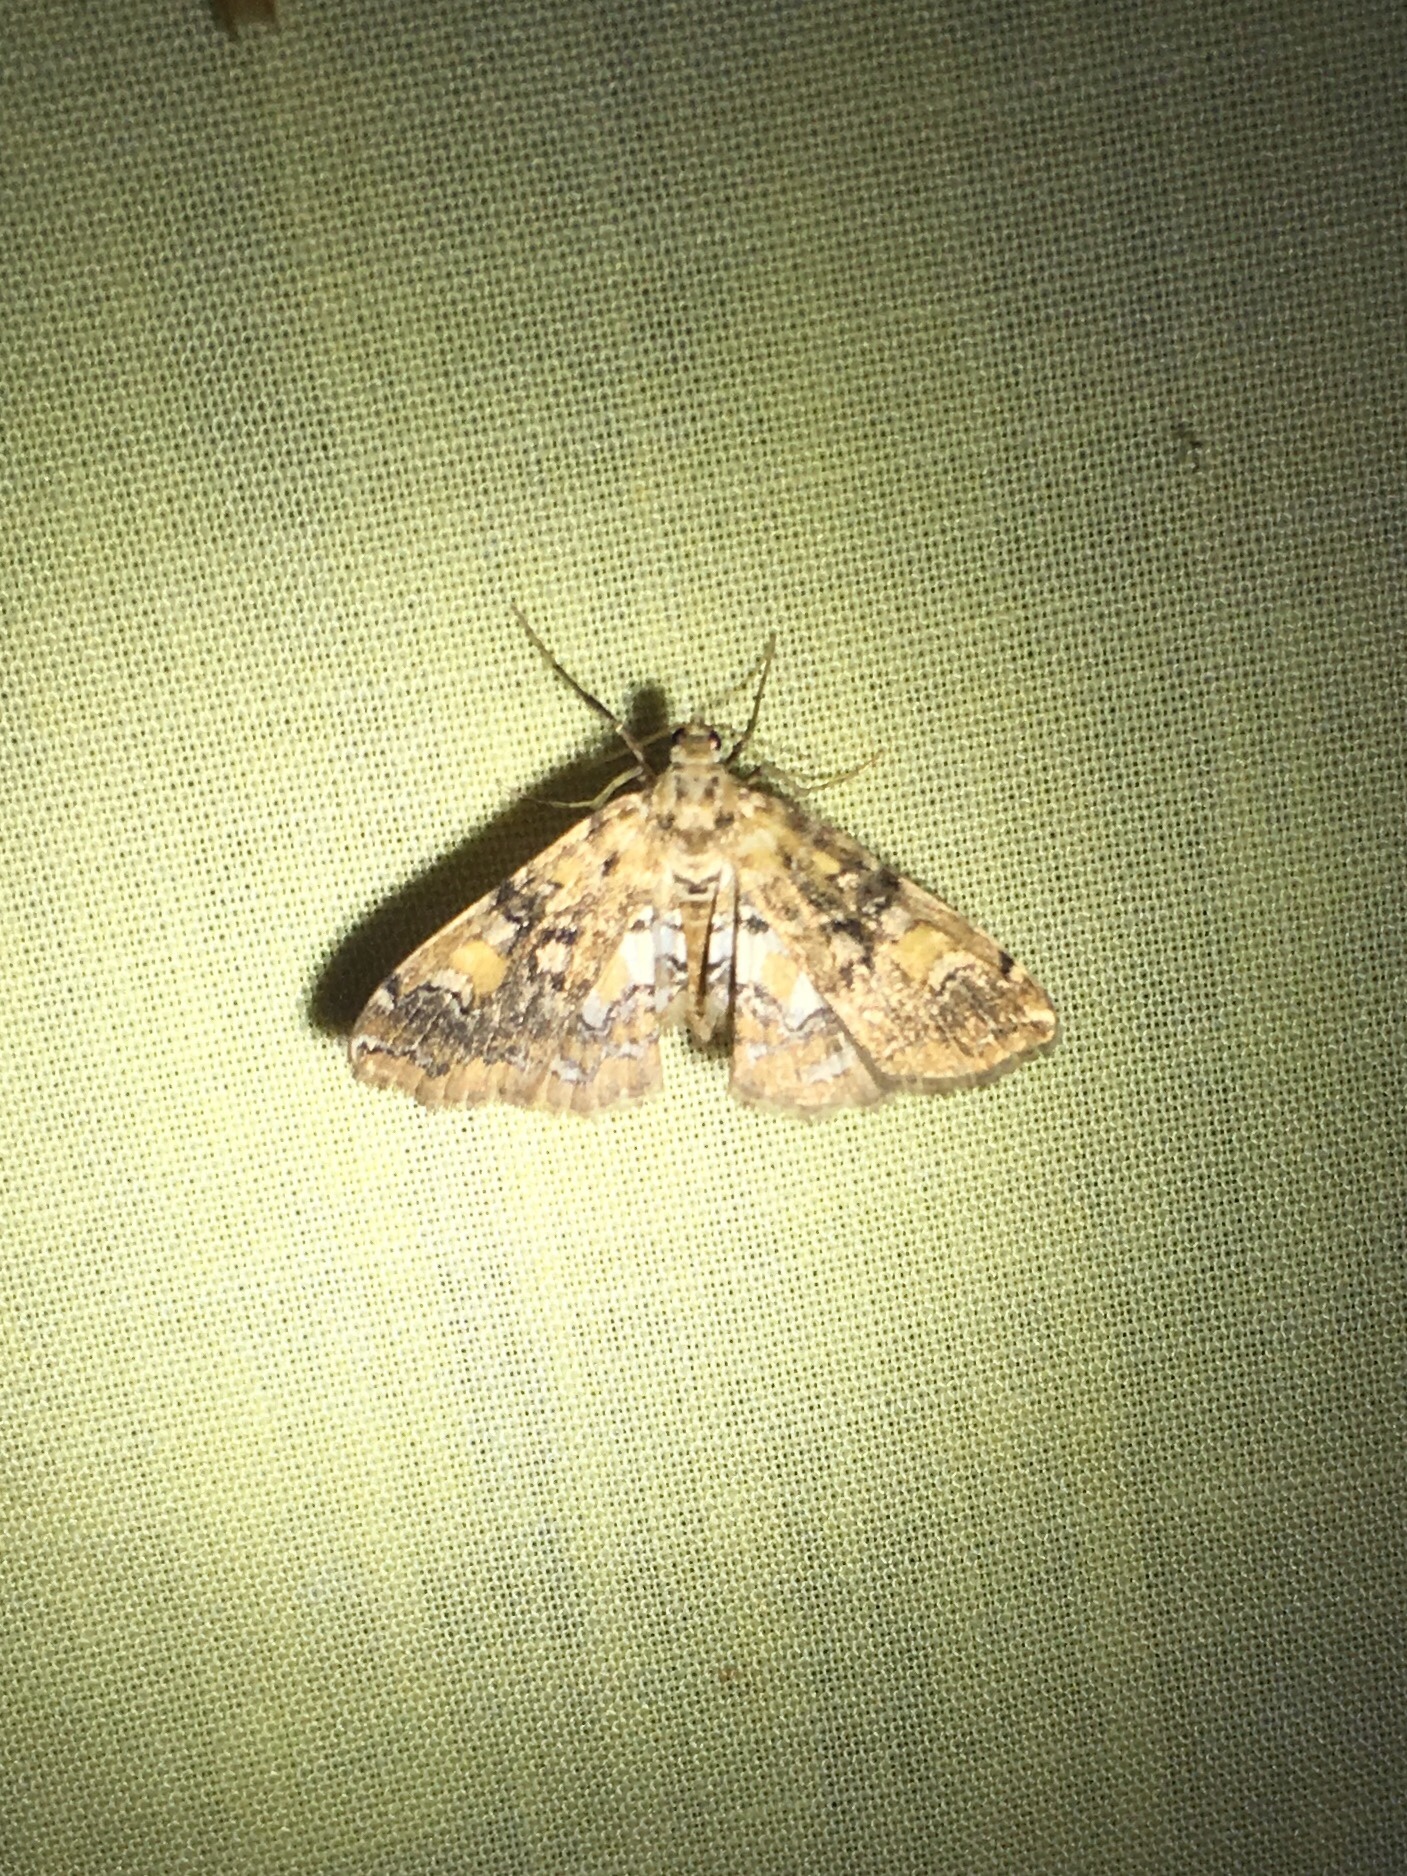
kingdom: Animalia
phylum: Arthropoda
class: Insecta
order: Lepidoptera
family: Crambidae
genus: Elophila
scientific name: Elophila faulalis
